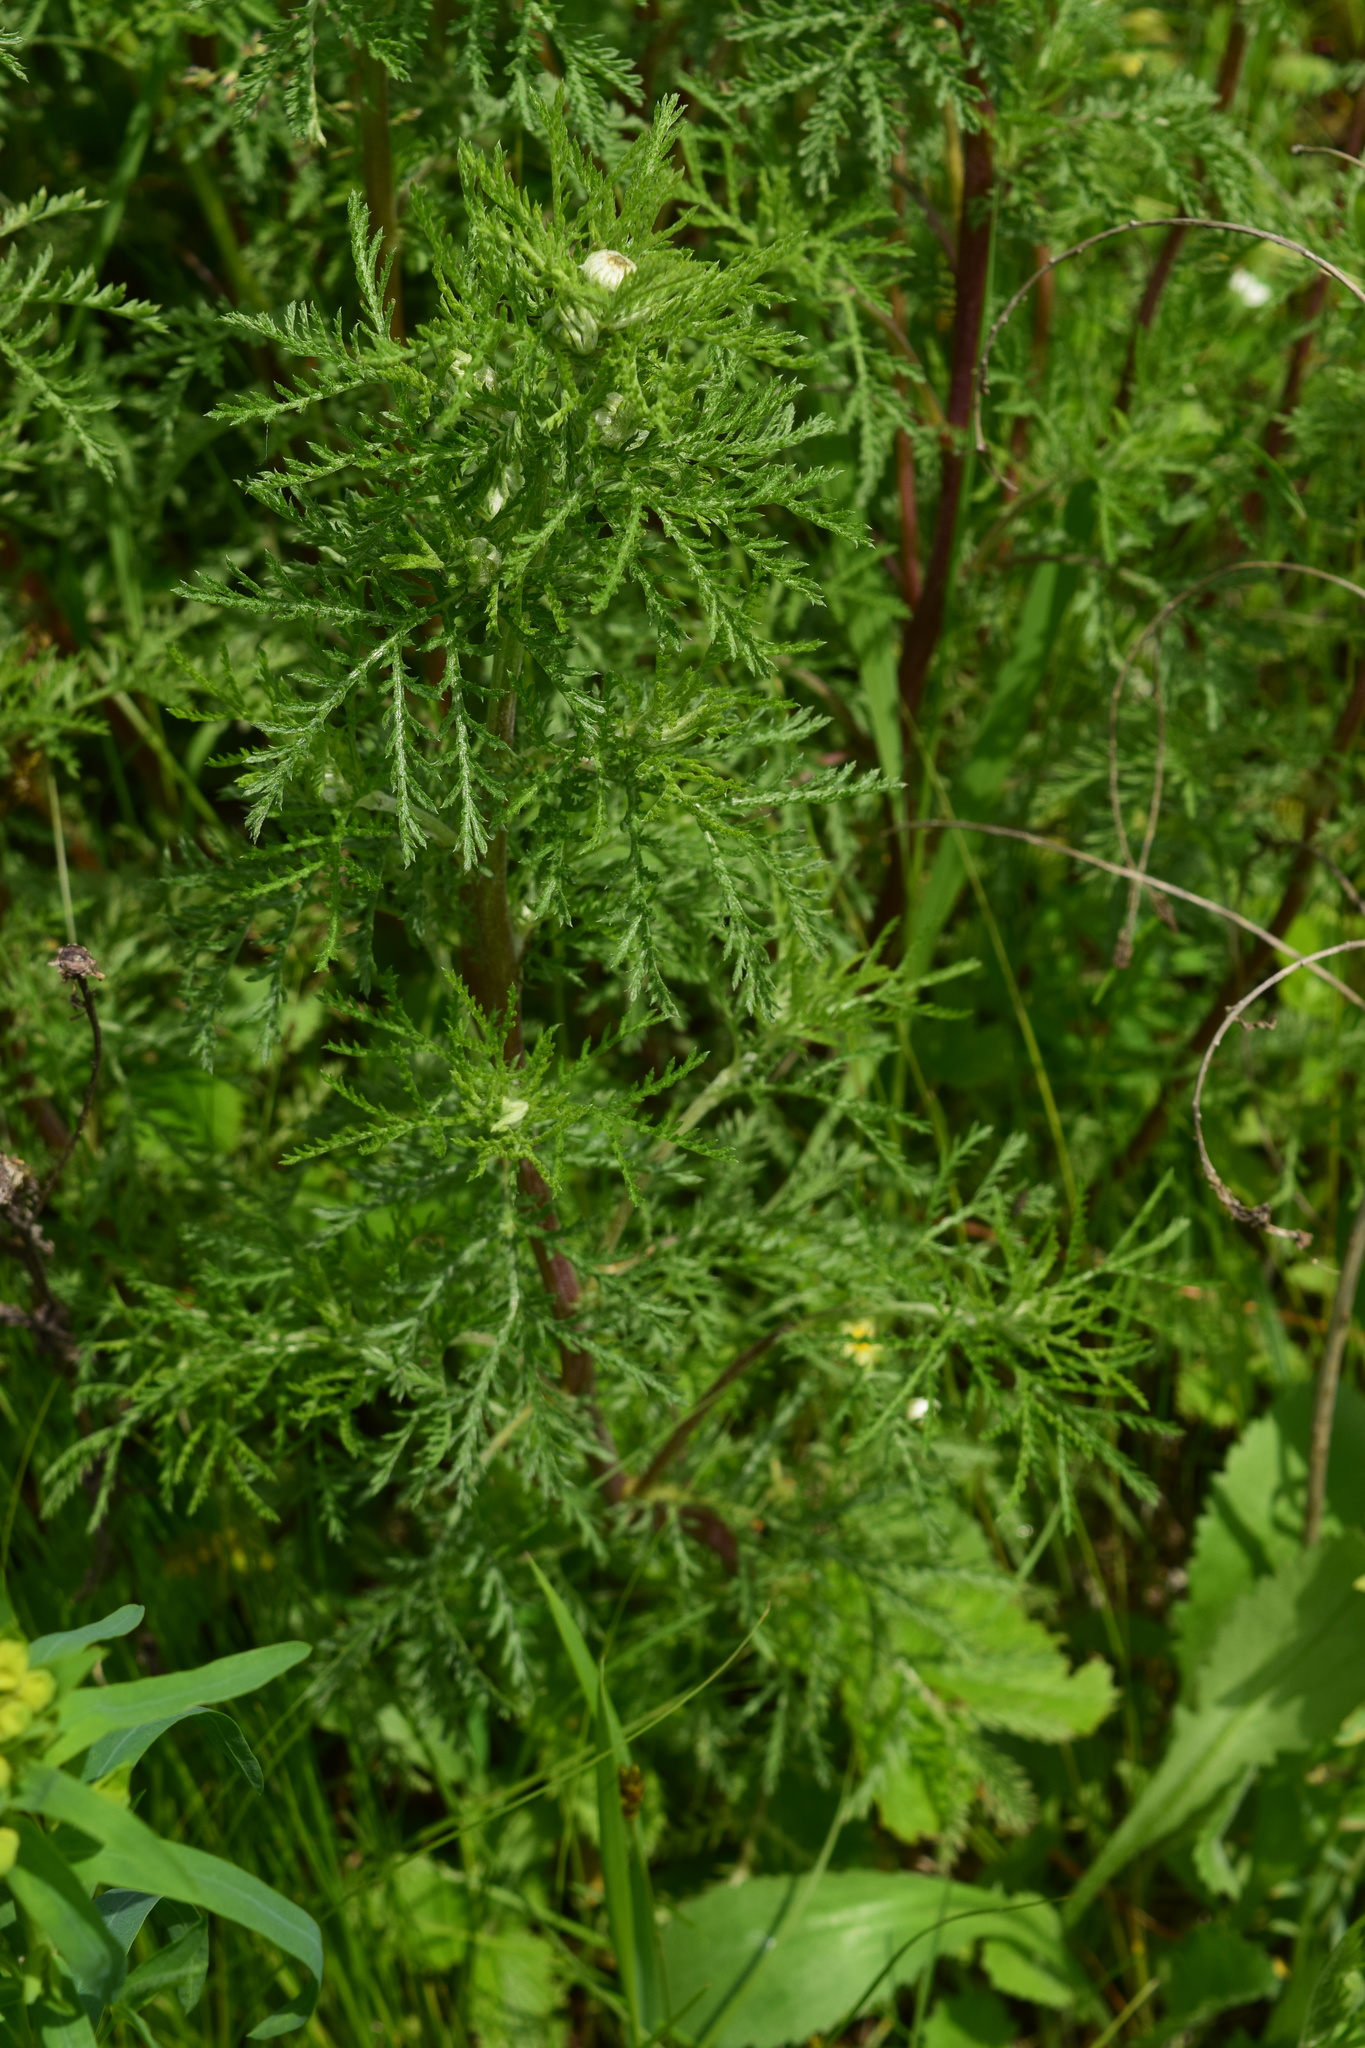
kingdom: Plantae
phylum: Tracheophyta
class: Magnoliopsida
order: Asterales
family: Asteraceae
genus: Cota
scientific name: Cota tinctoria
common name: Golden chamomile
